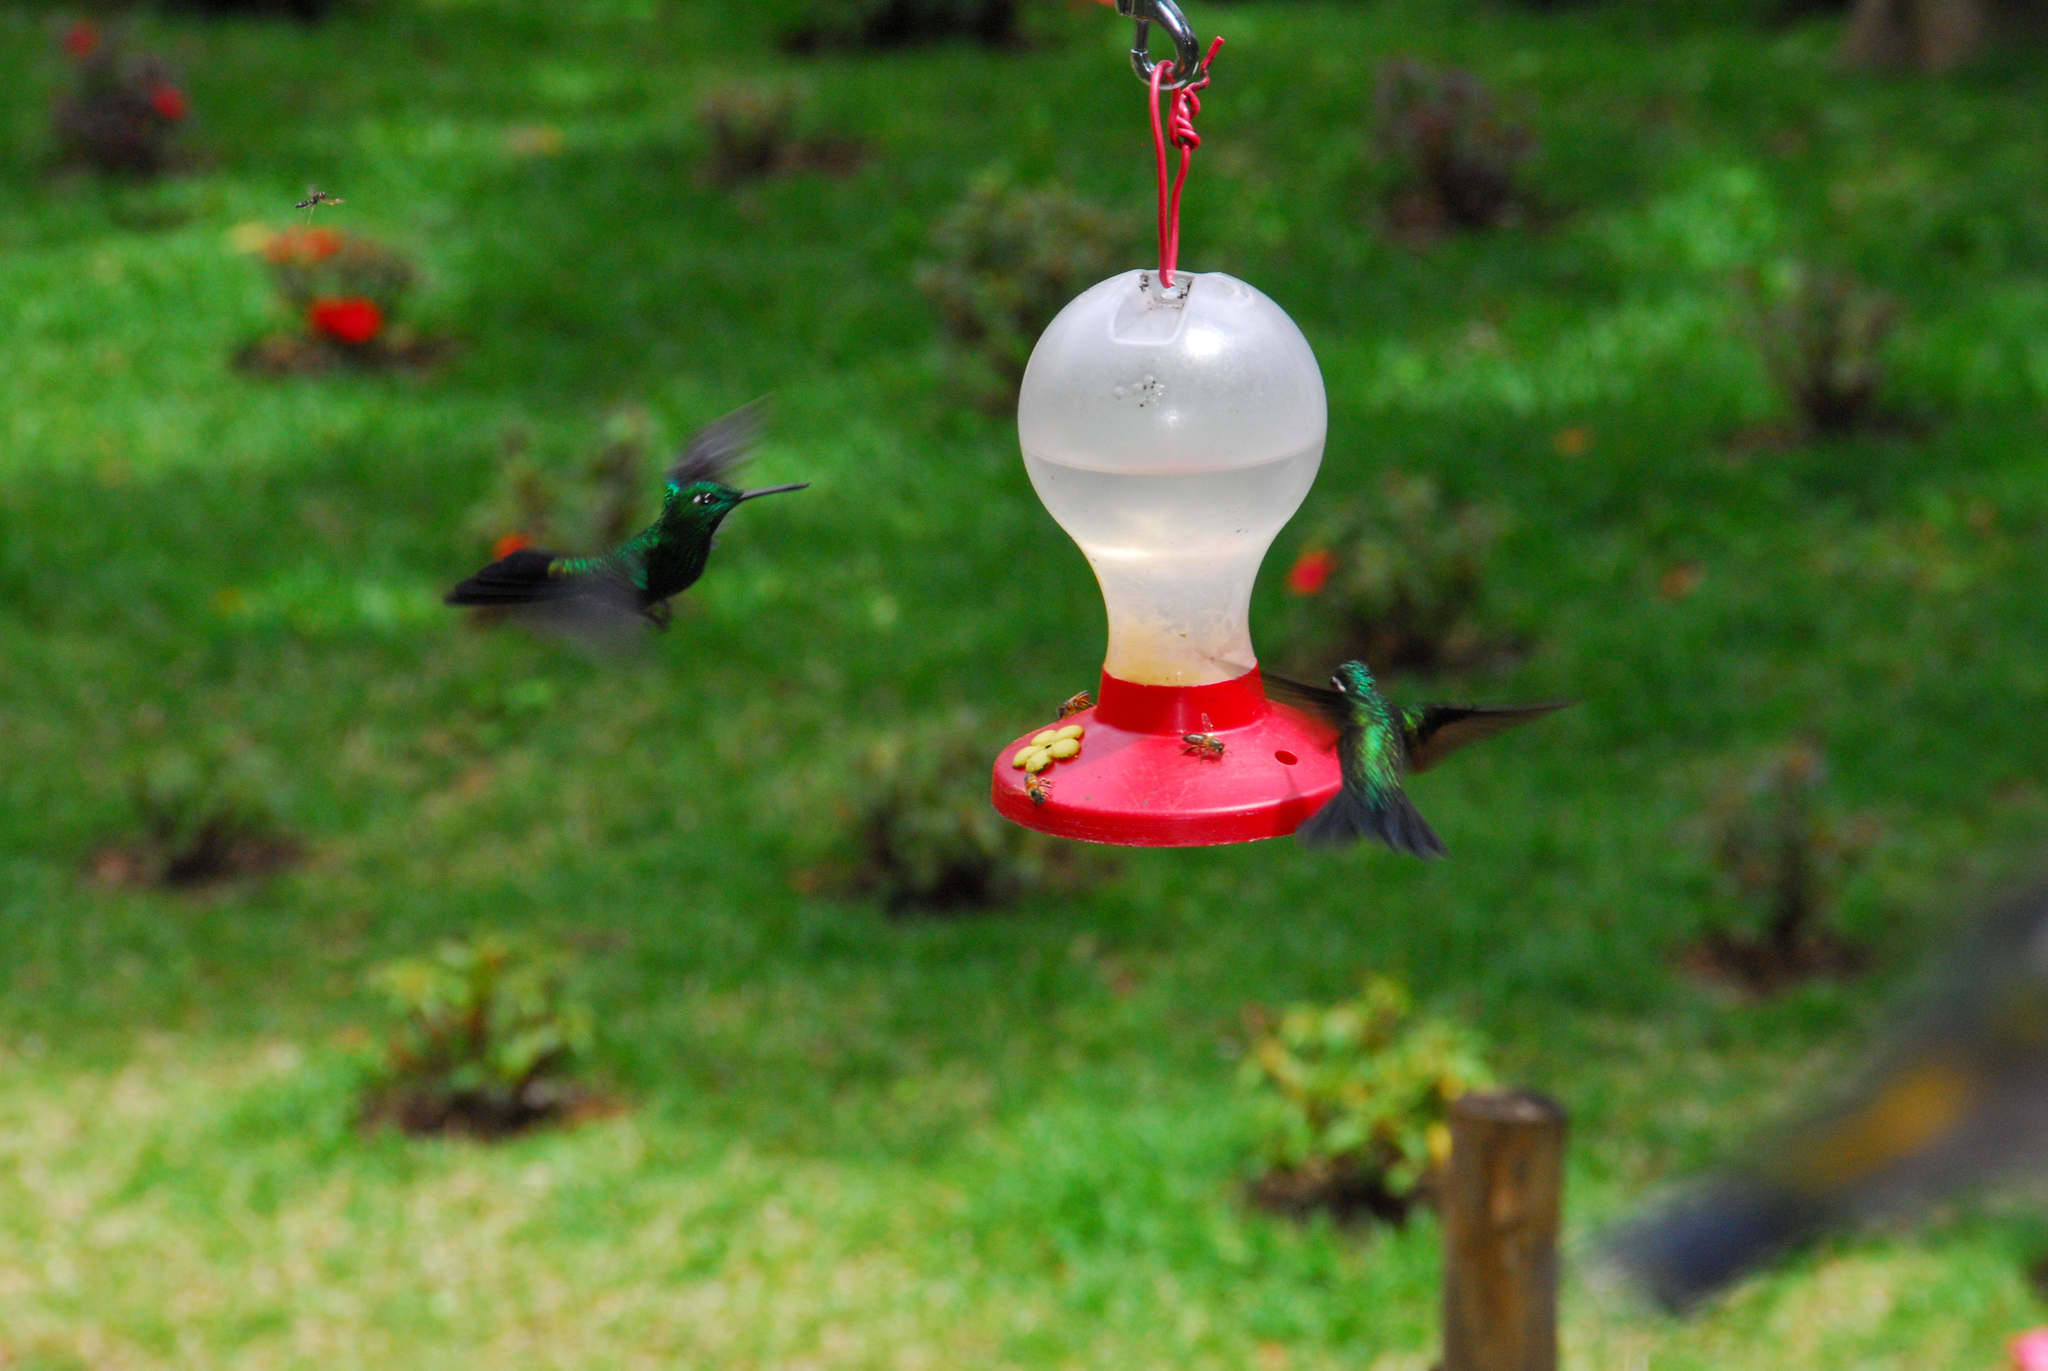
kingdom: Animalia
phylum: Chordata
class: Aves
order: Apodiformes
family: Trochilidae
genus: Heliodoxa
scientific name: Heliodoxa jacula
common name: Green-crowned brilliant
